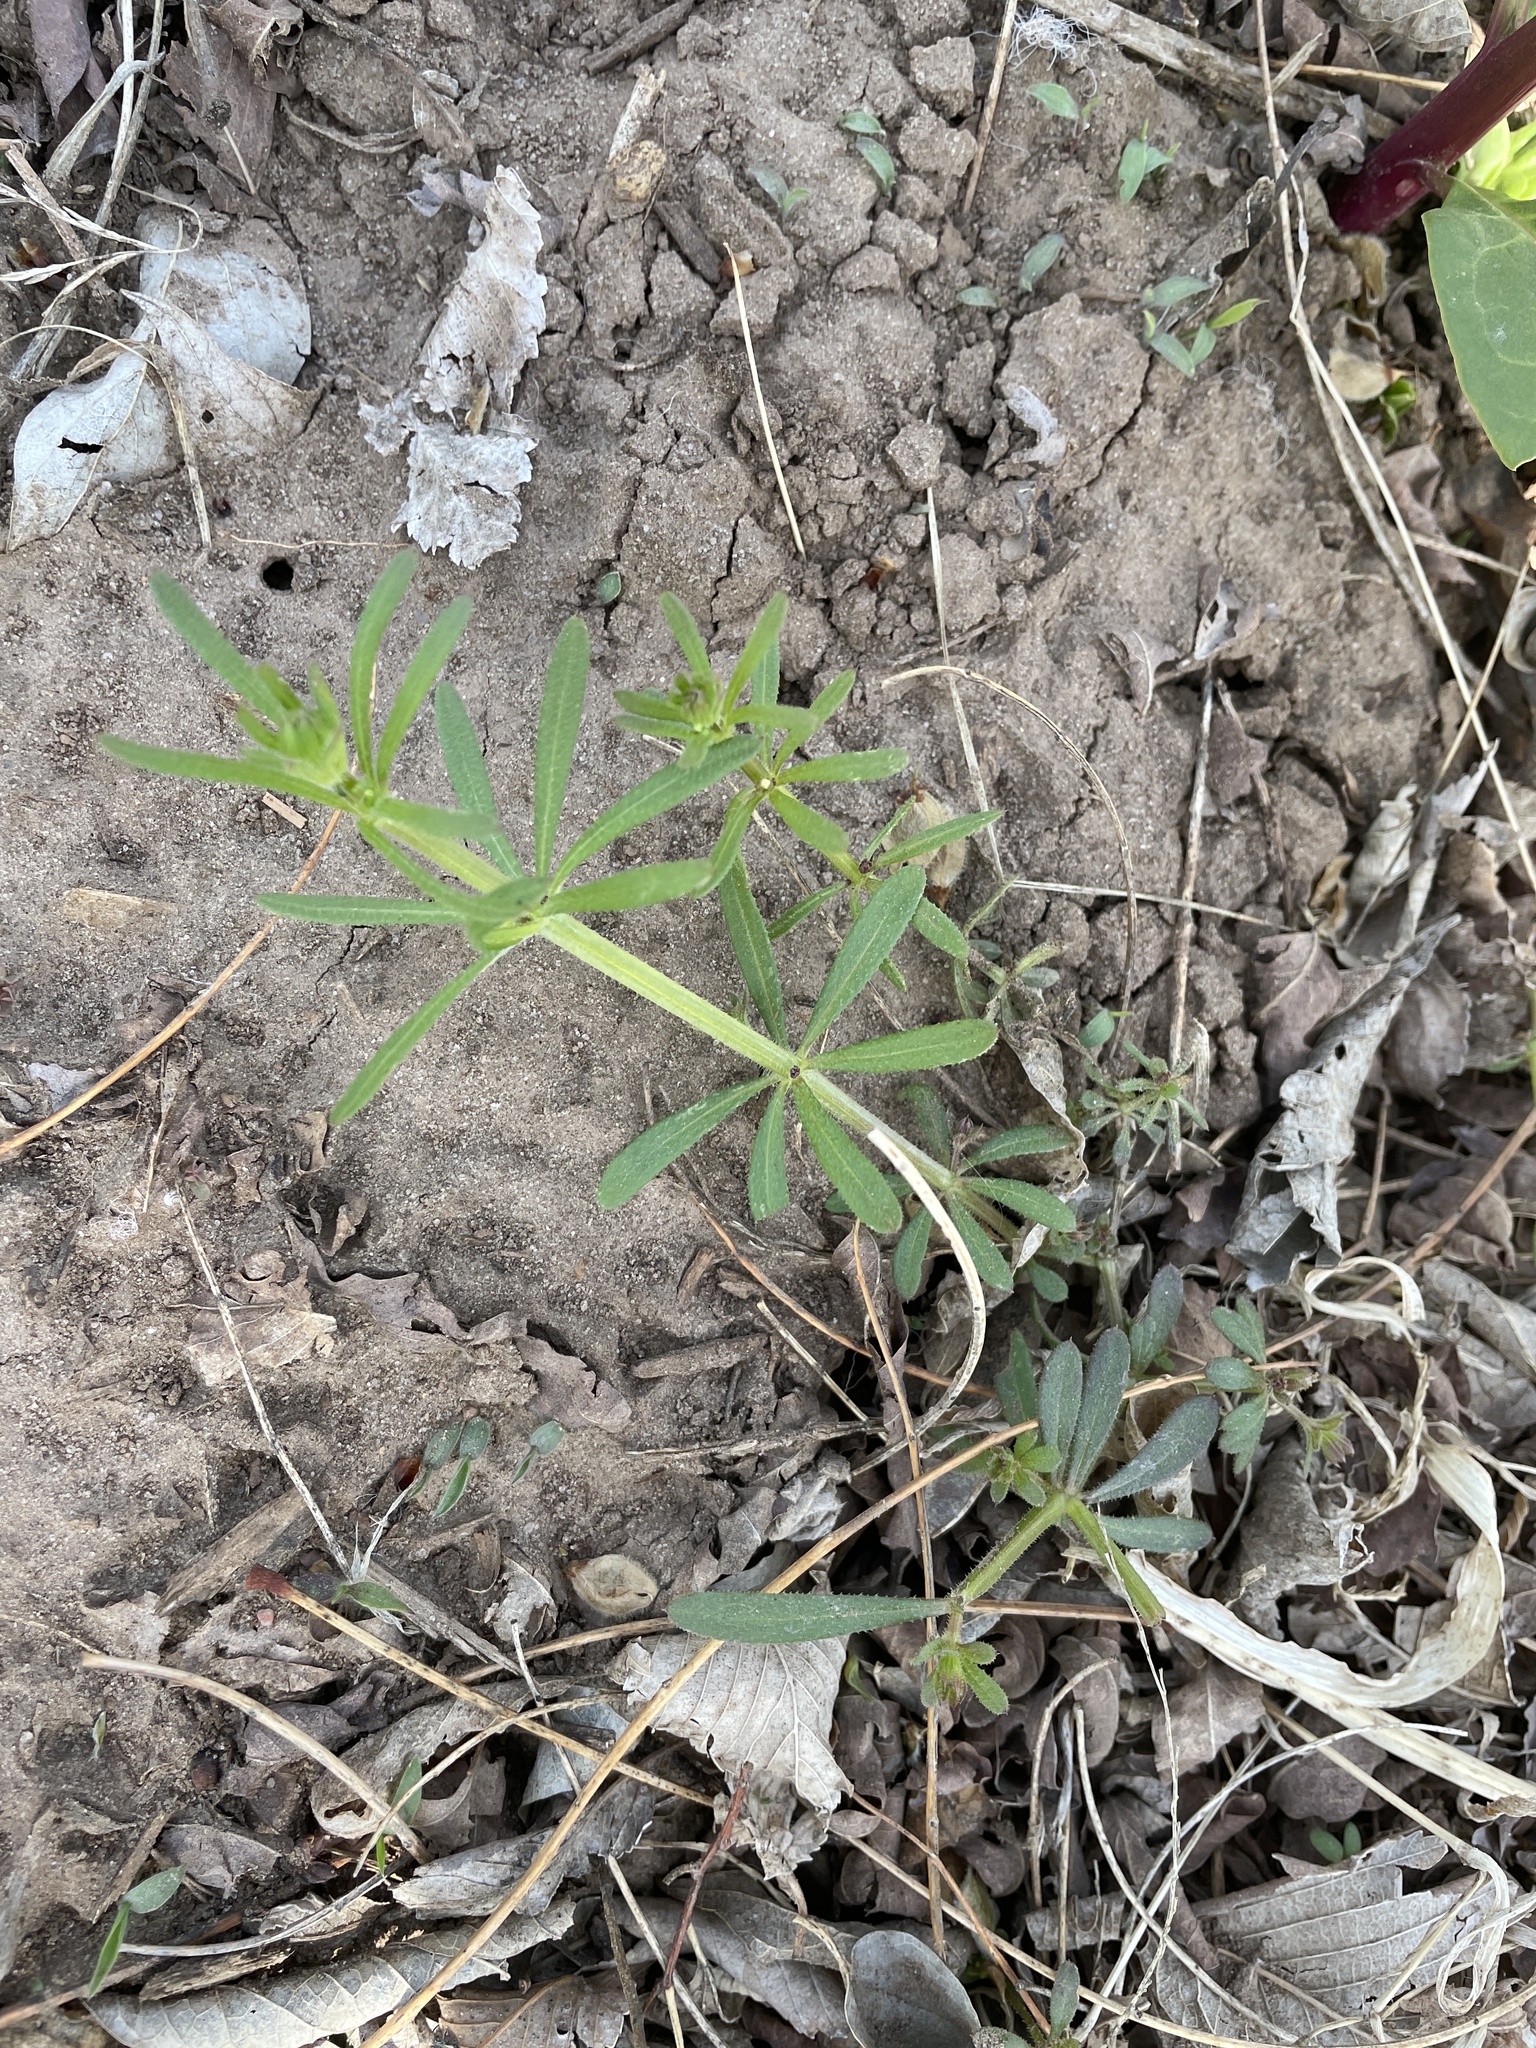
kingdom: Plantae
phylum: Tracheophyta
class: Magnoliopsida
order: Gentianales
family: Rubiaceae
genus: Galium
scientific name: Galium aparine
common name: Cleavers
